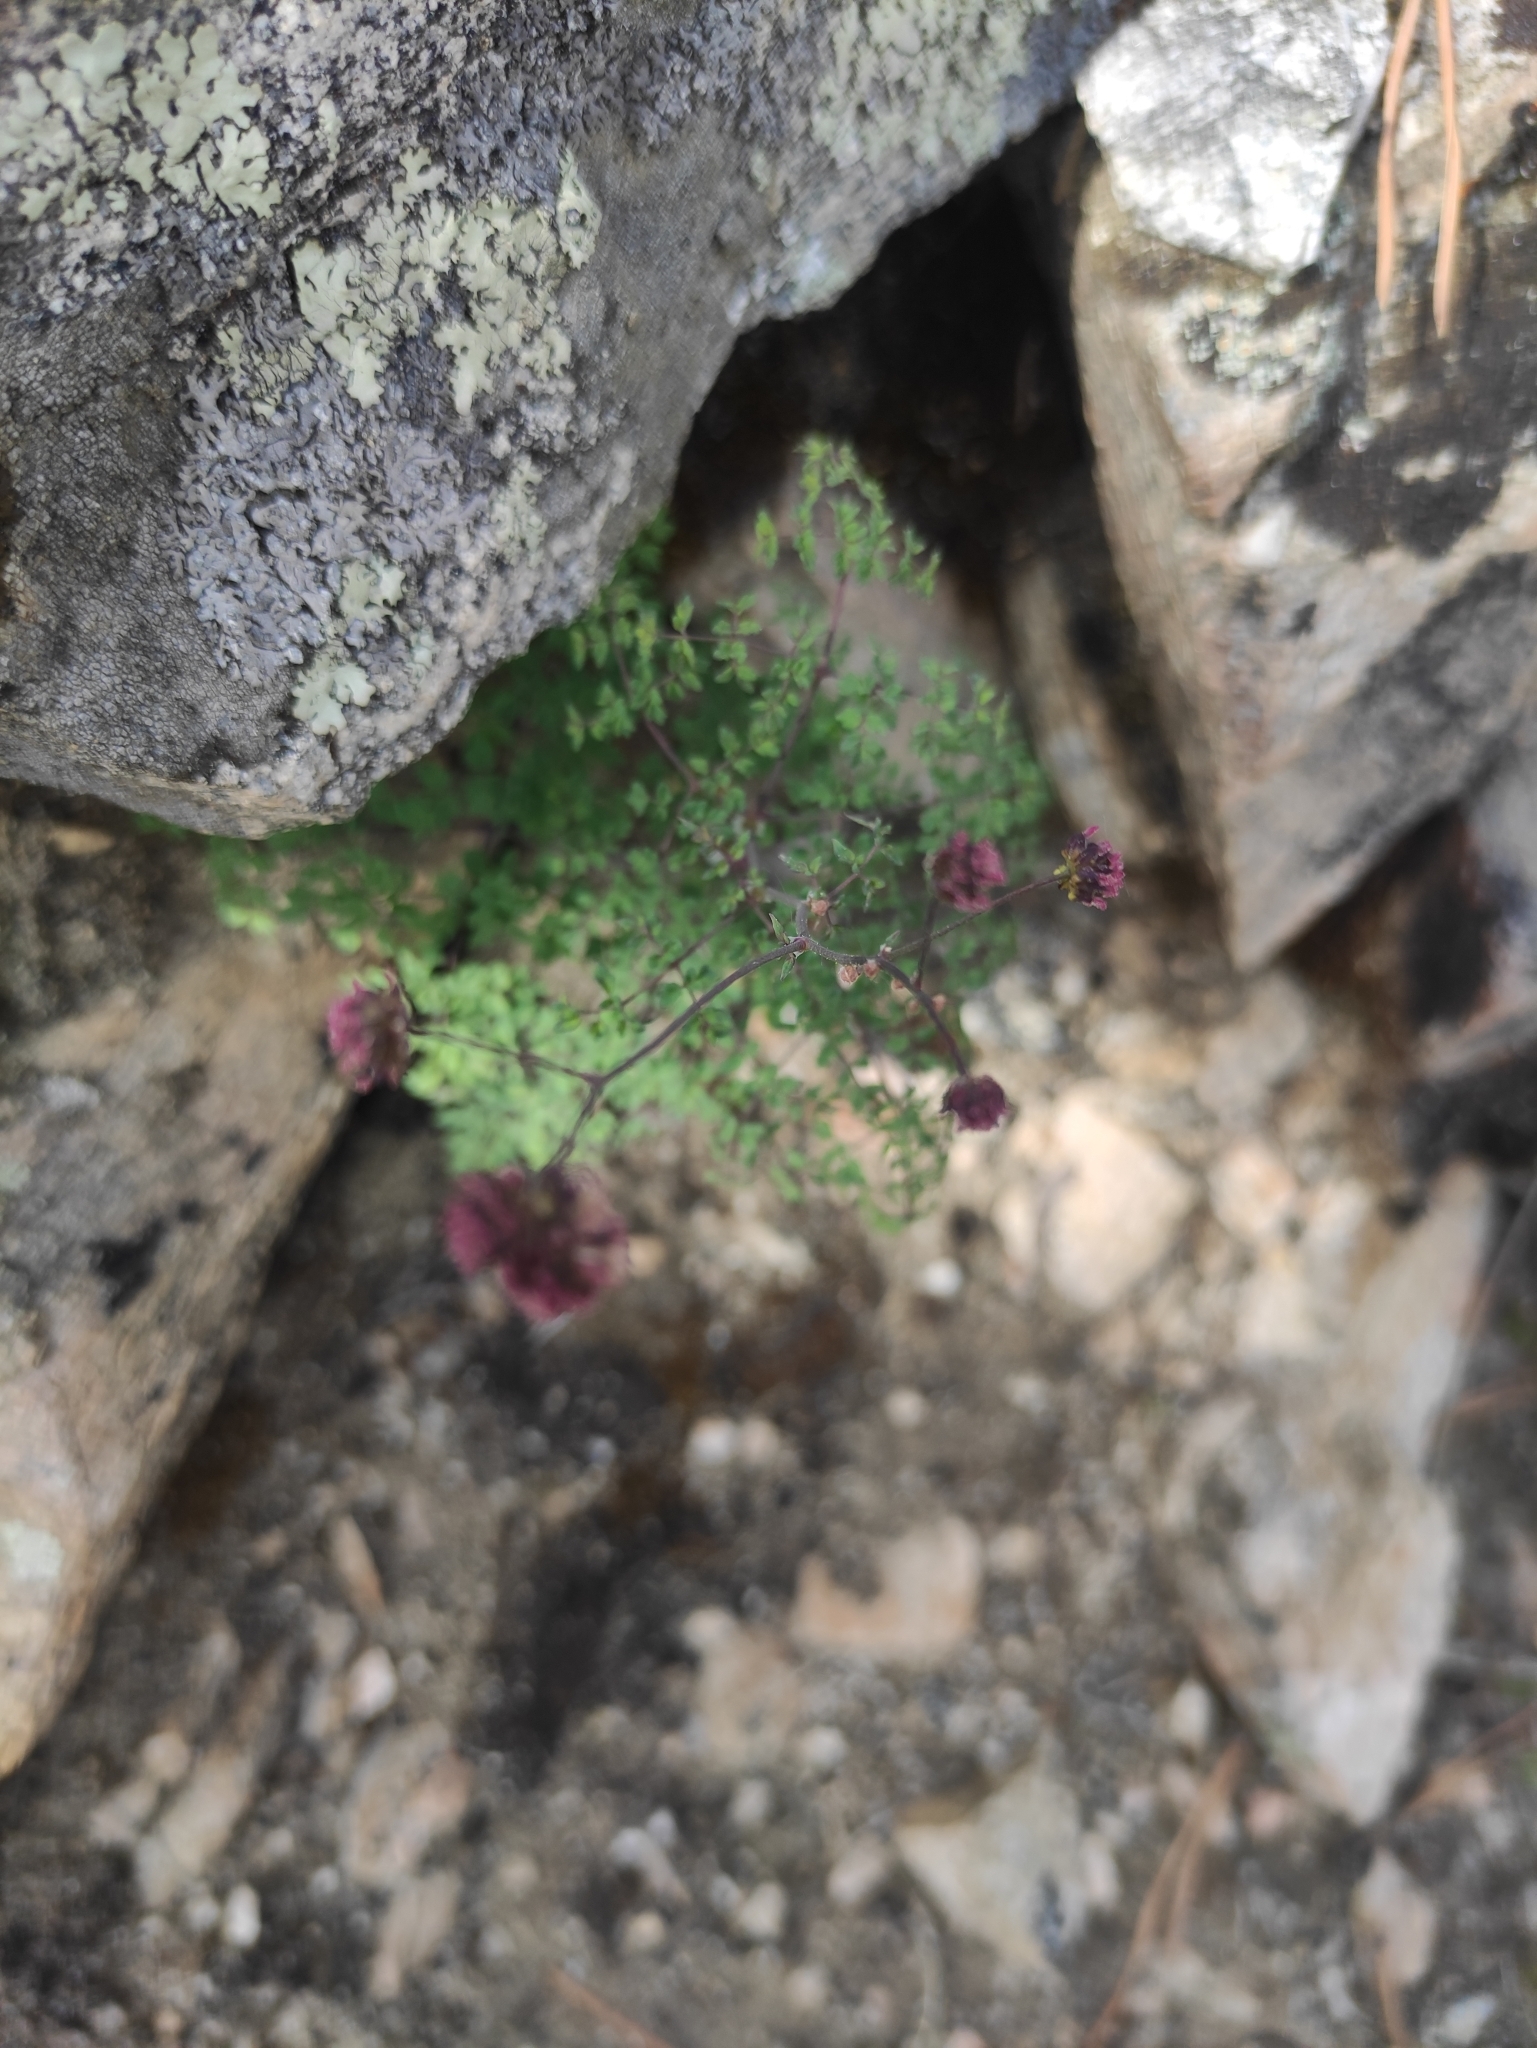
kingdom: Plantae
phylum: Tracheophyta
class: Magnoliopsida
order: Ranunculales
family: Ranunculaceae
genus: Thalictrum
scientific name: Thalictrum foetidum
